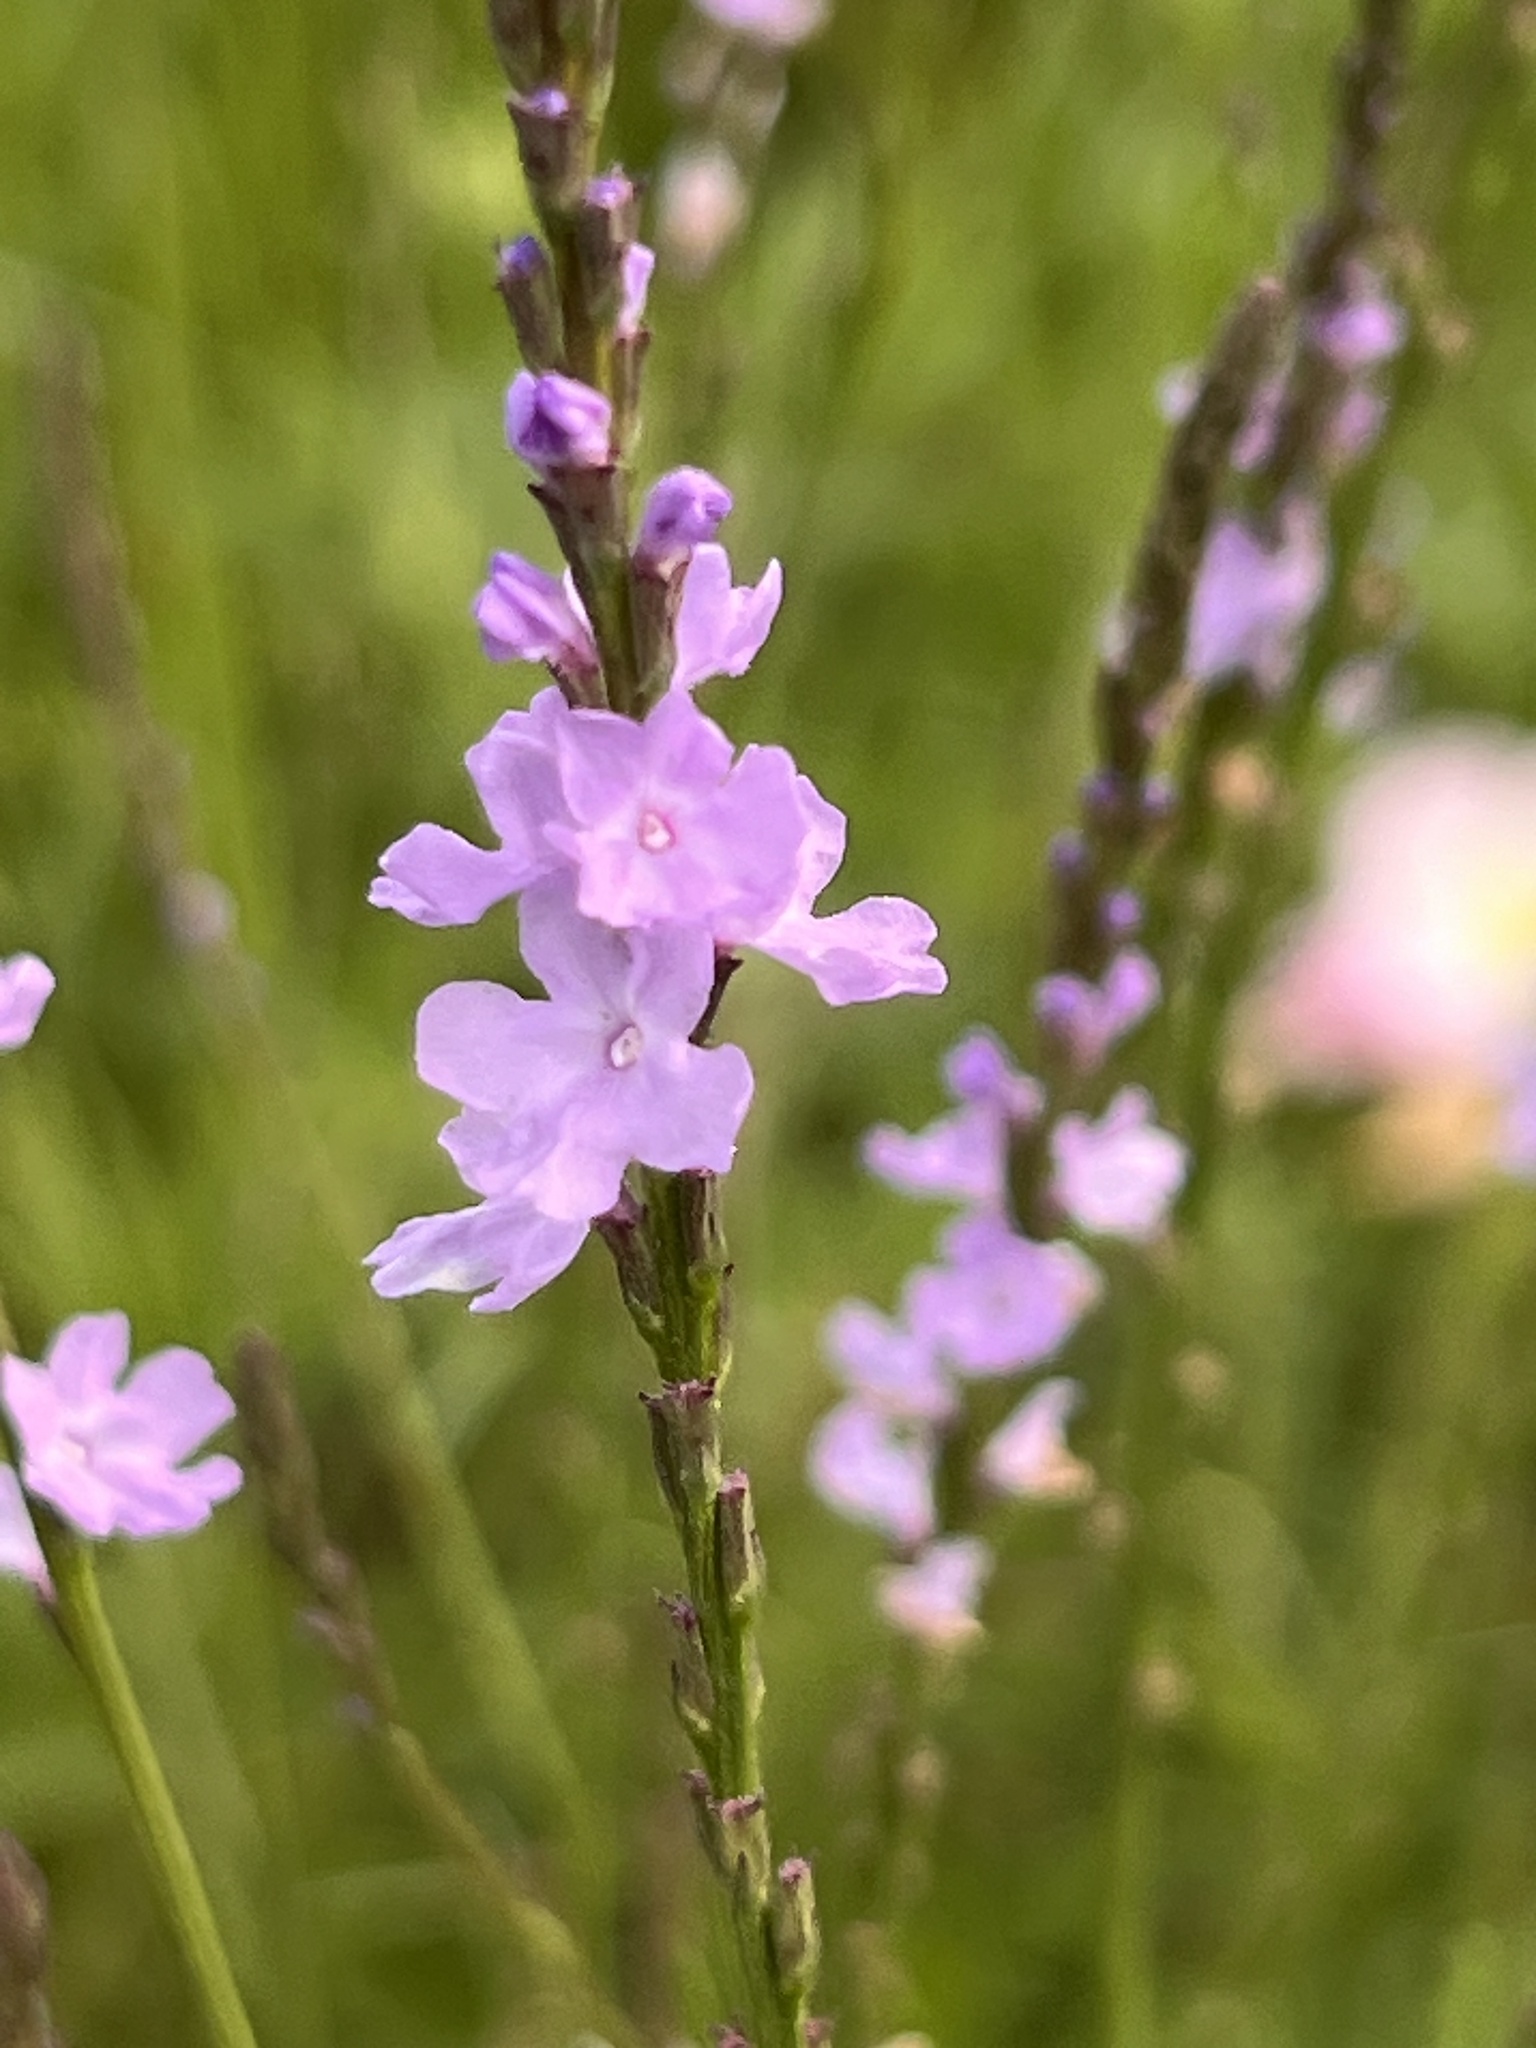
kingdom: Plantae
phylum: Tracheophyta
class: Magnoliopsida
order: Lamiales
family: Verbenaceae
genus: Verbena
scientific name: Verbena halei
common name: Texas vervain
